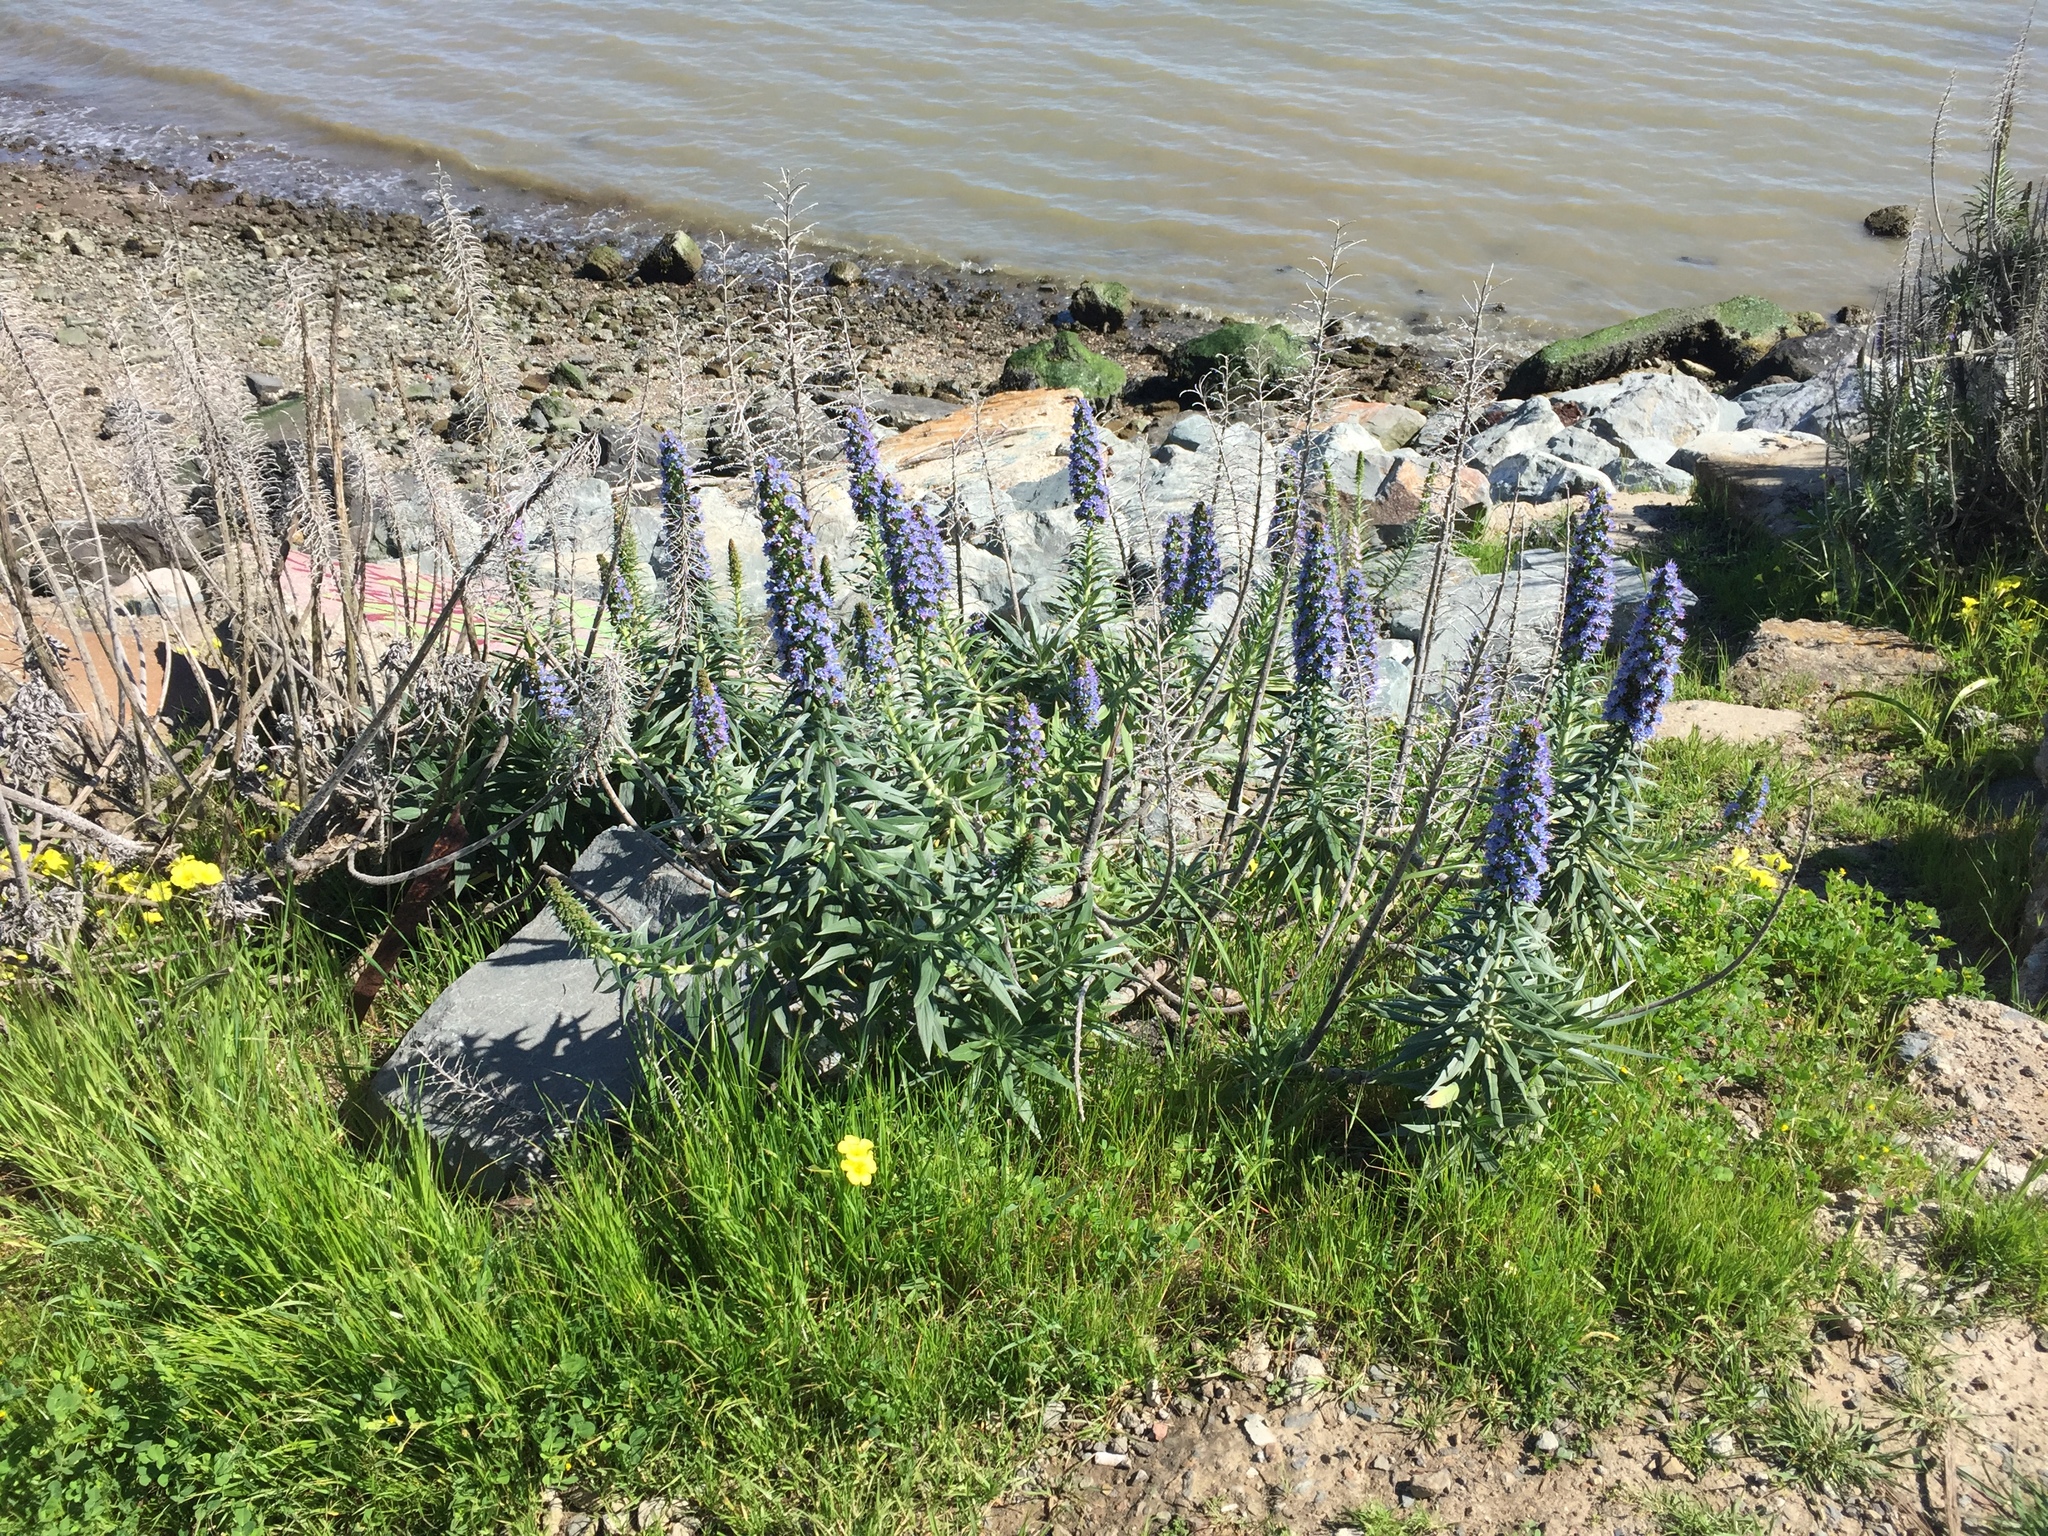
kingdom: Plantae
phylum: Tracheophyta
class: Magnoliopsida
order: Boraginales
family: Boraginaceae
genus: Echium
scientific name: Echium candicans
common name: Pride of madeira
